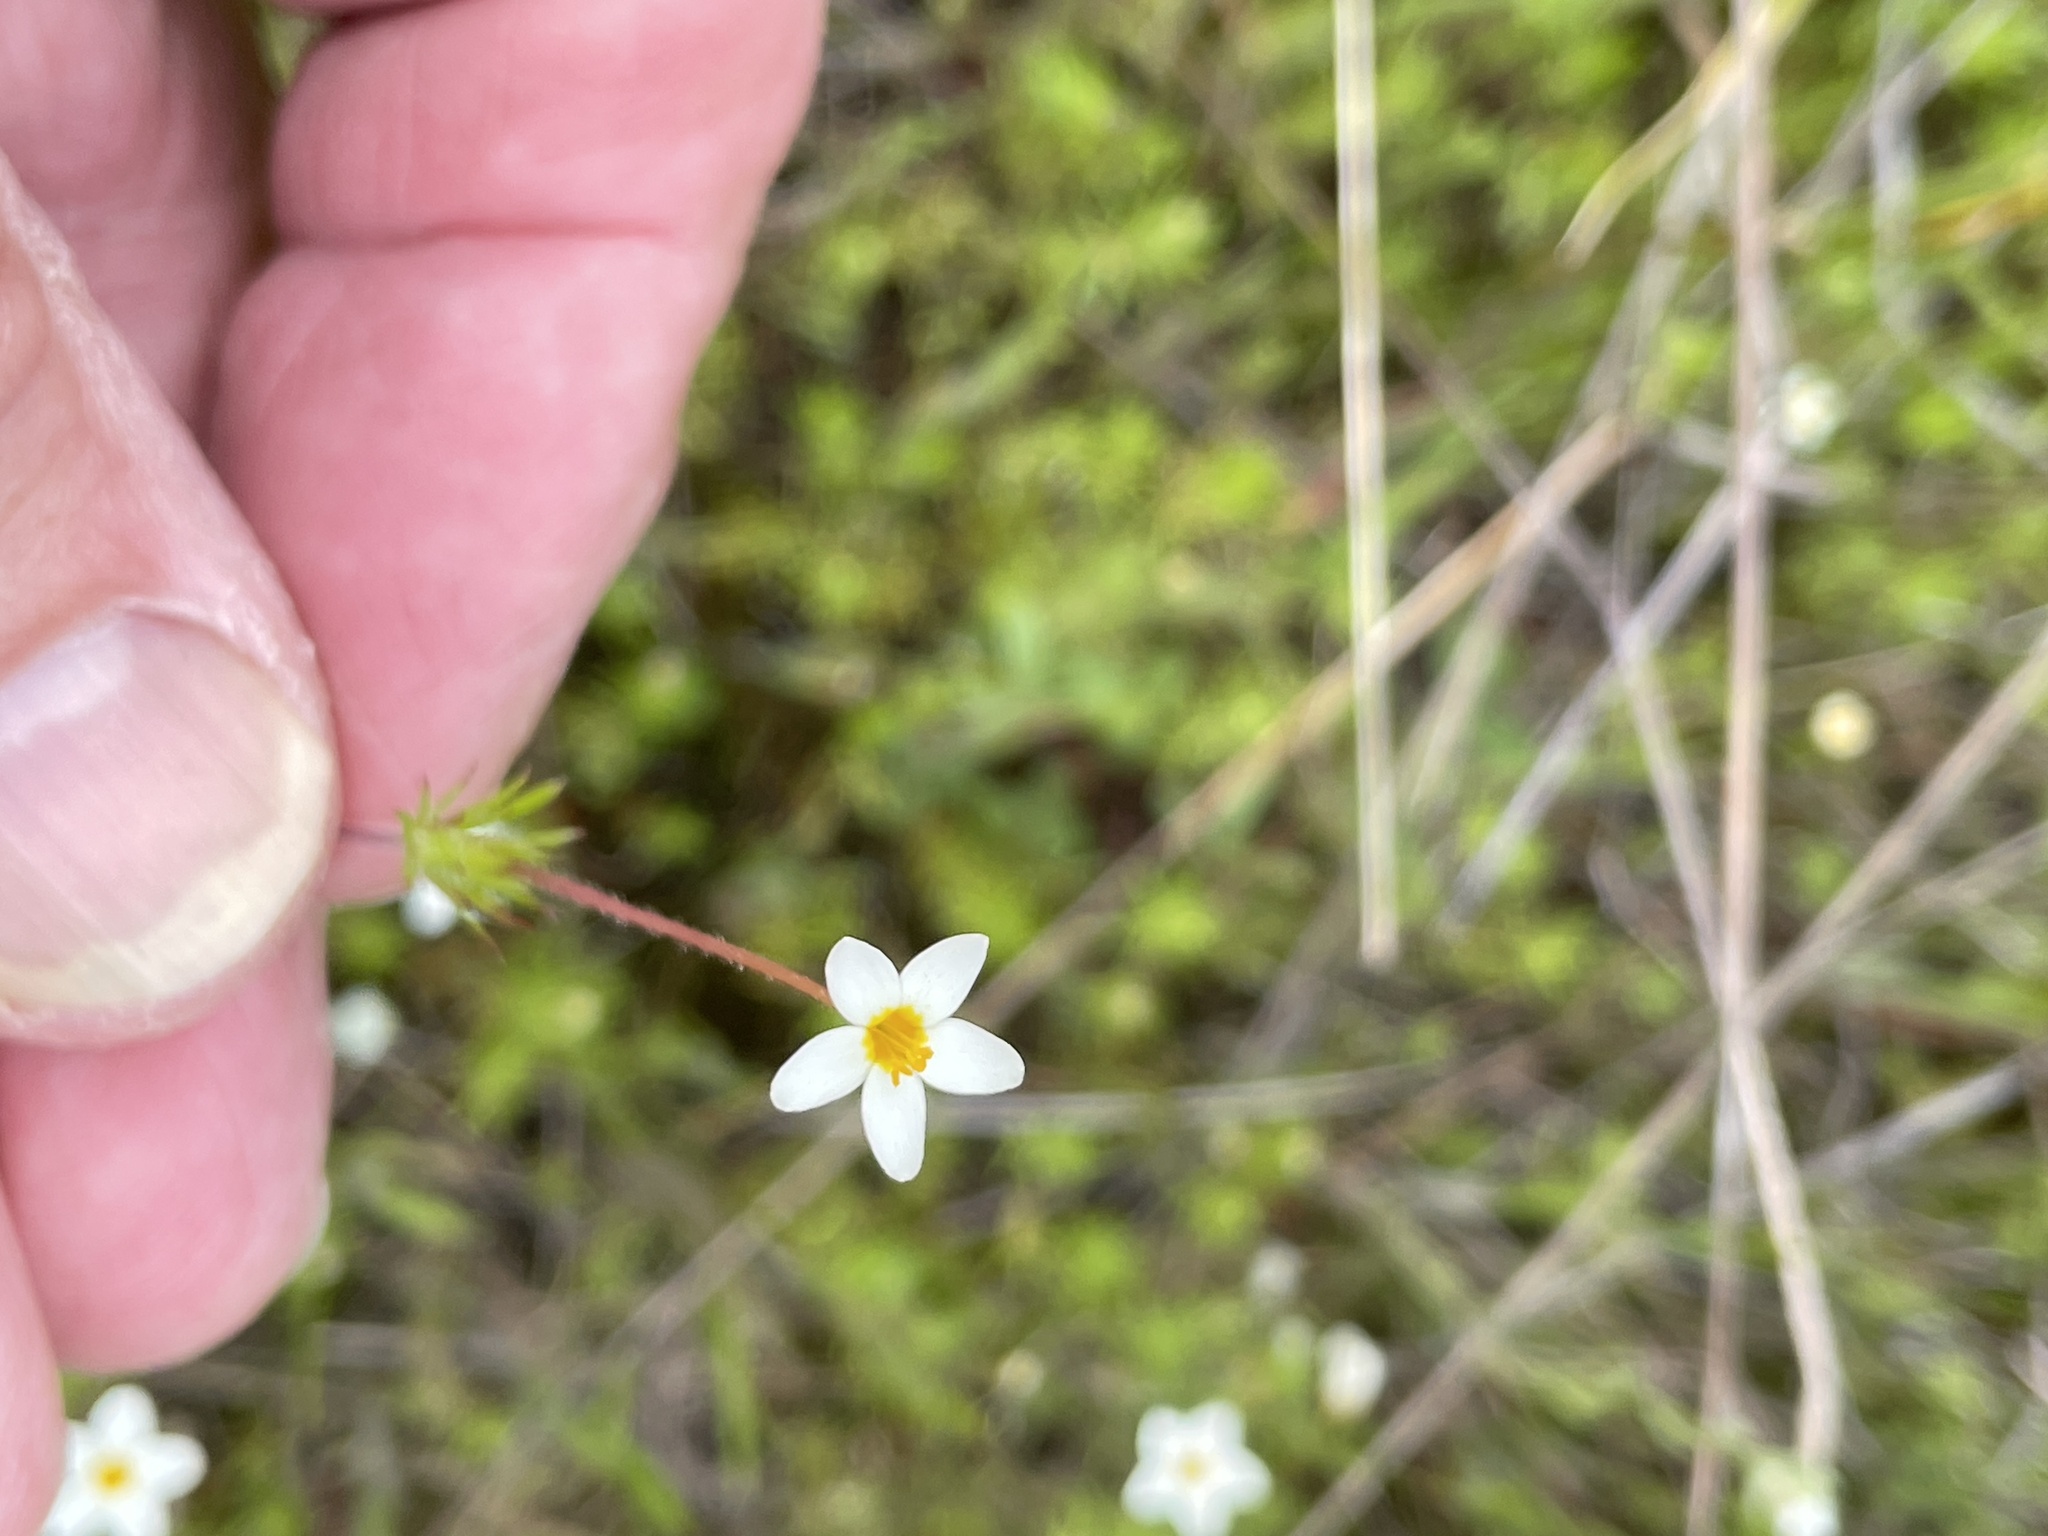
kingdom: Plantae
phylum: Tracheophyta
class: Magnoliopsida
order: Ericales
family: Polemoniaceae
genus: Leptosiphon
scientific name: Leptosiphon parviflorus
